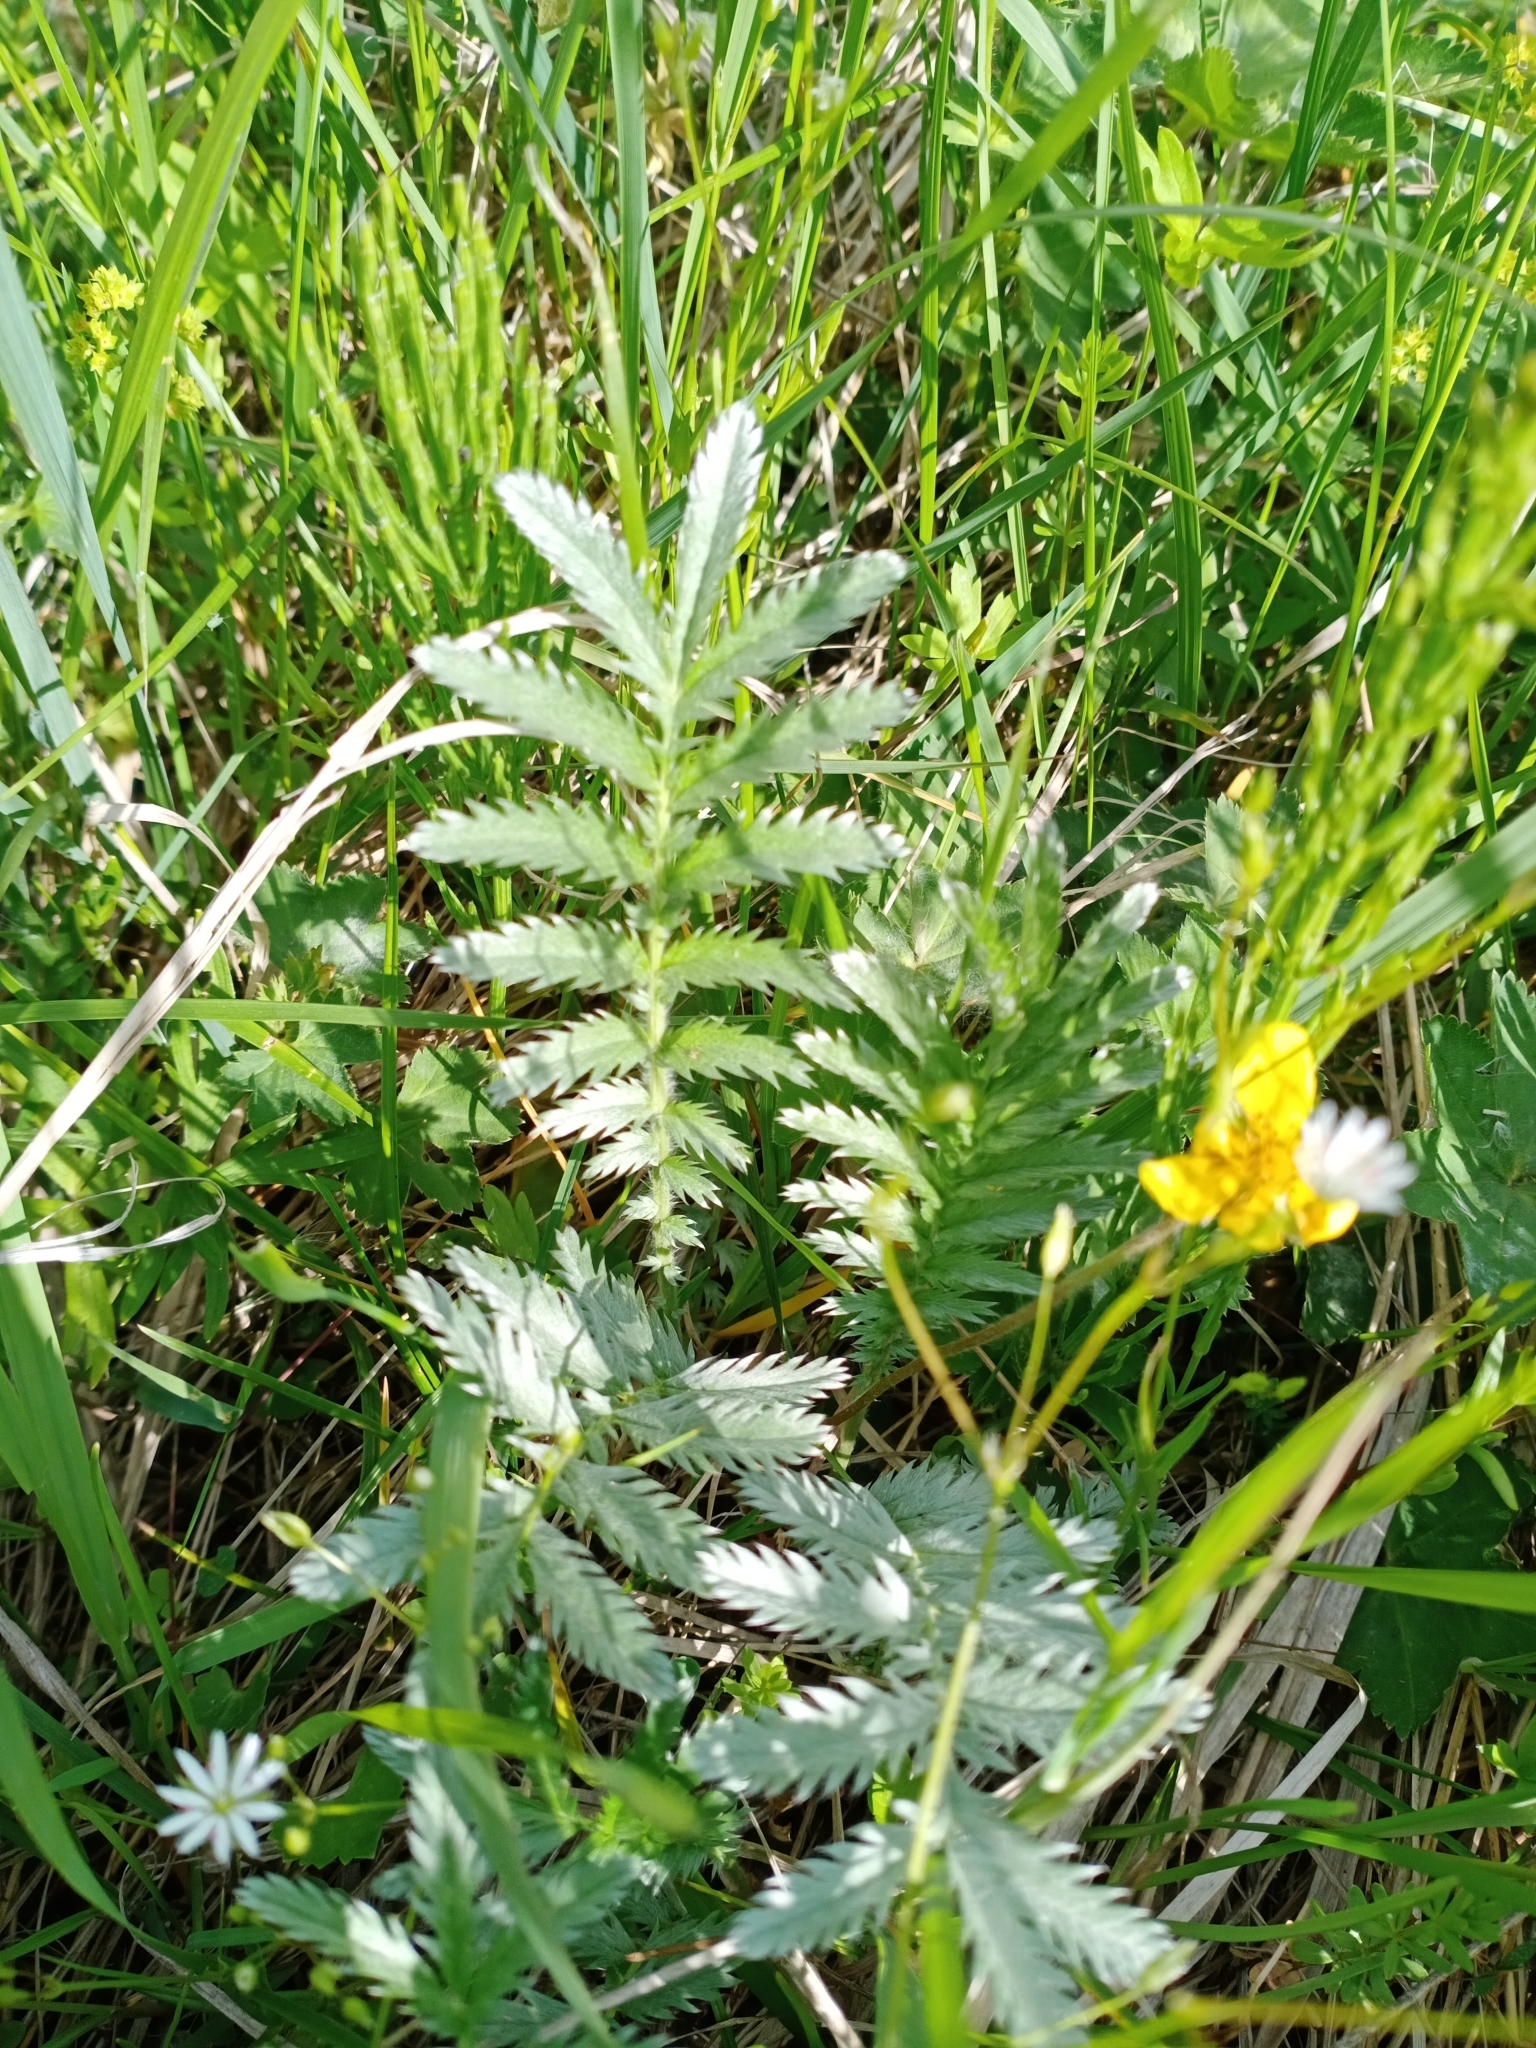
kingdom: Plantae
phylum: Tracheophyta
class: Magnoliopsida
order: Rosales
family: Rosaceae
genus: Argentina
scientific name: Argentina anserina
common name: Common silverweed
